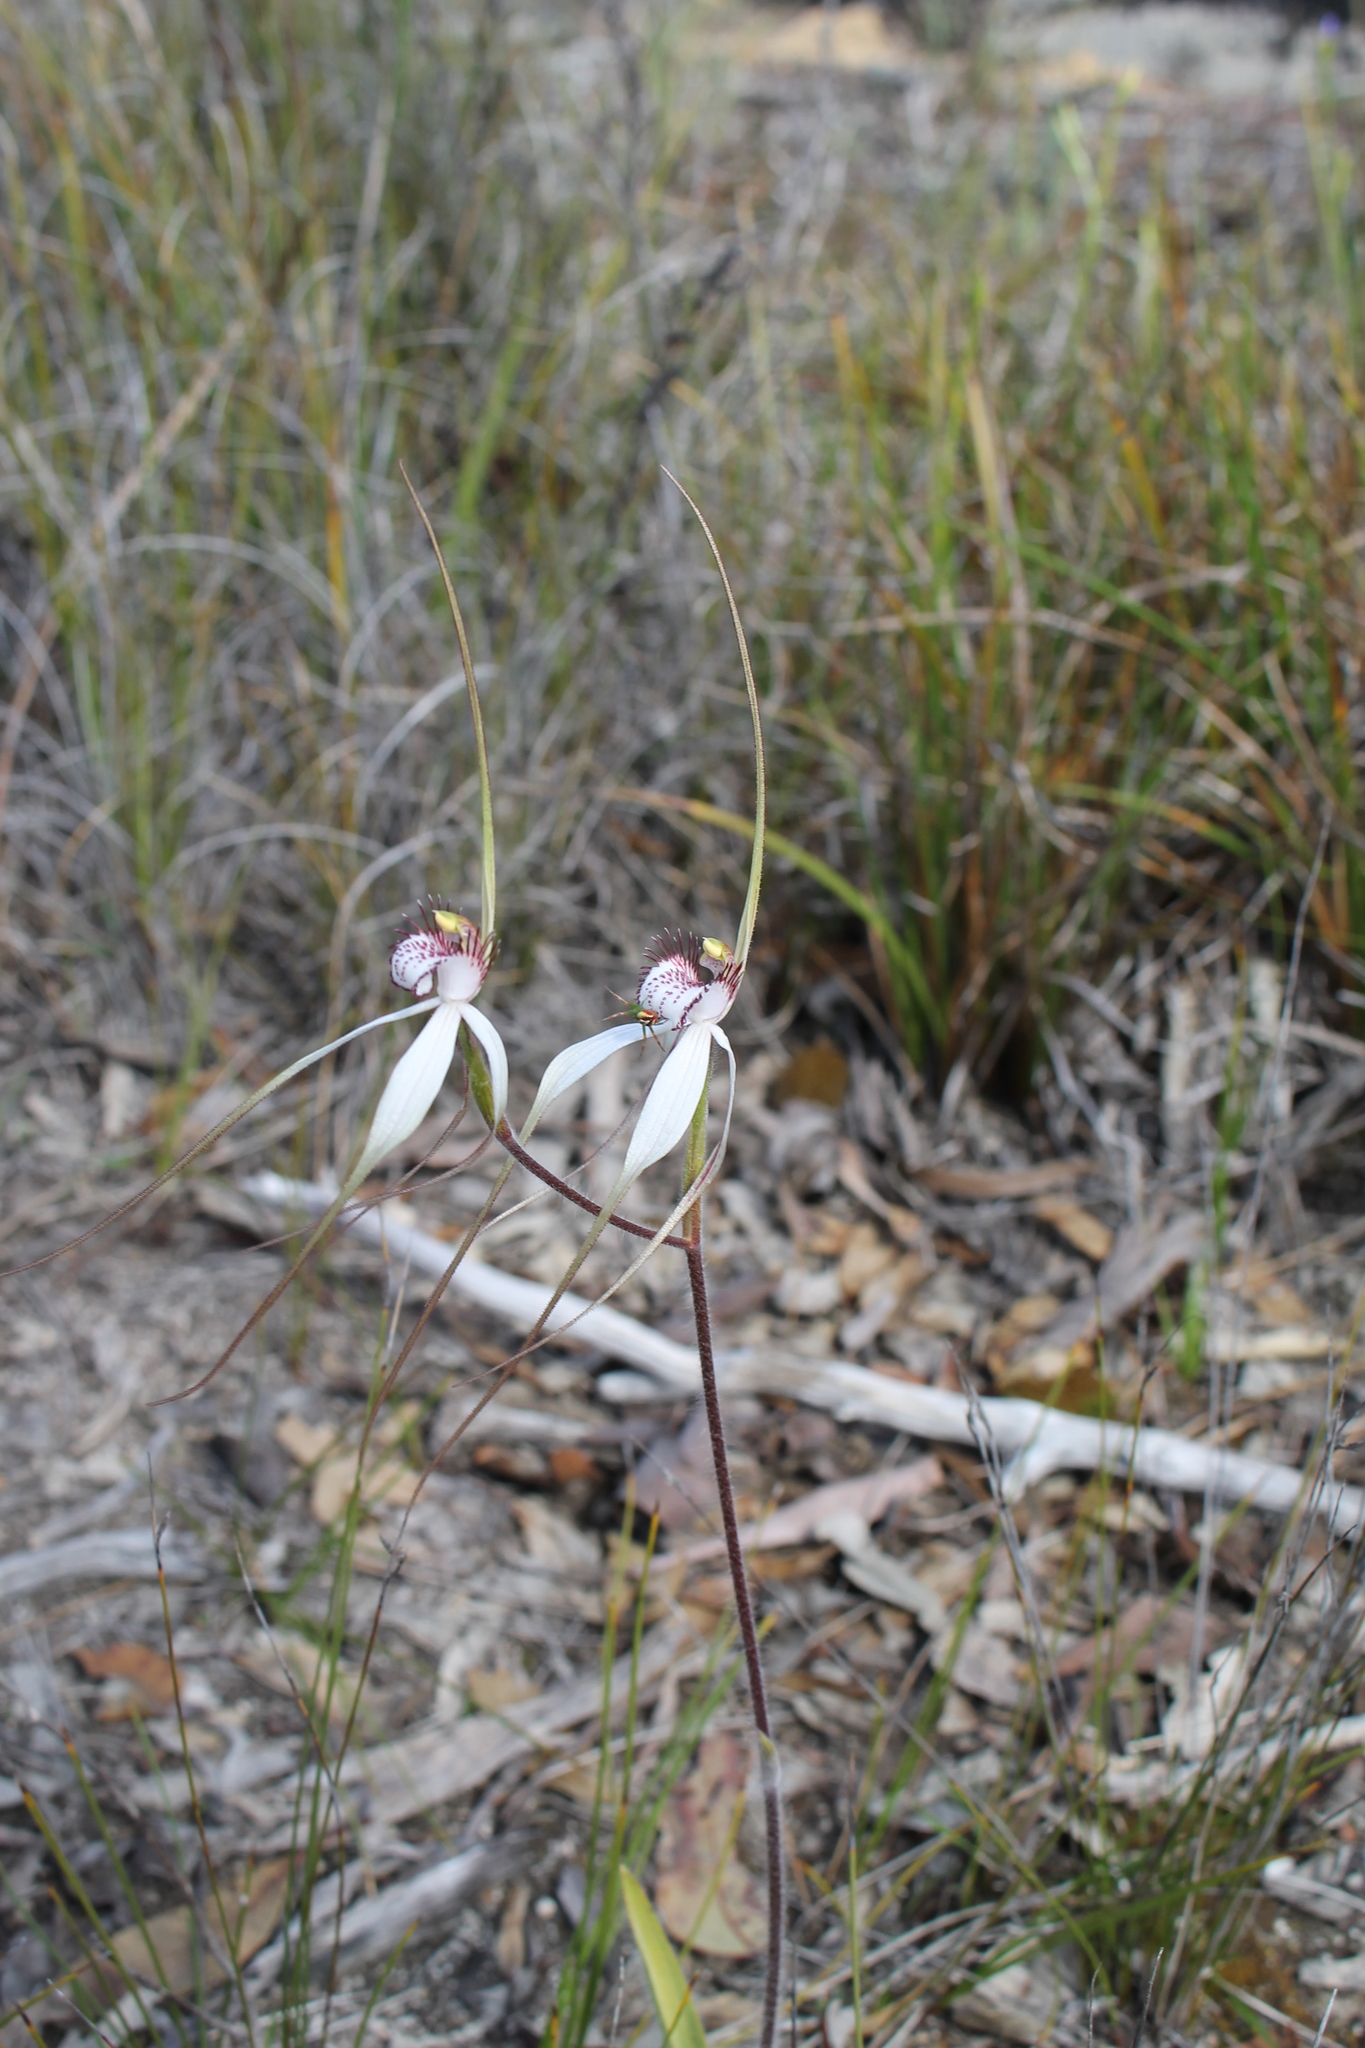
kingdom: Plantae
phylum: Tracheophyta
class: Liliopsida
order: Asparagales
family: Orchidaceae
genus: Caladenia
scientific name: Caladenia longicauda
